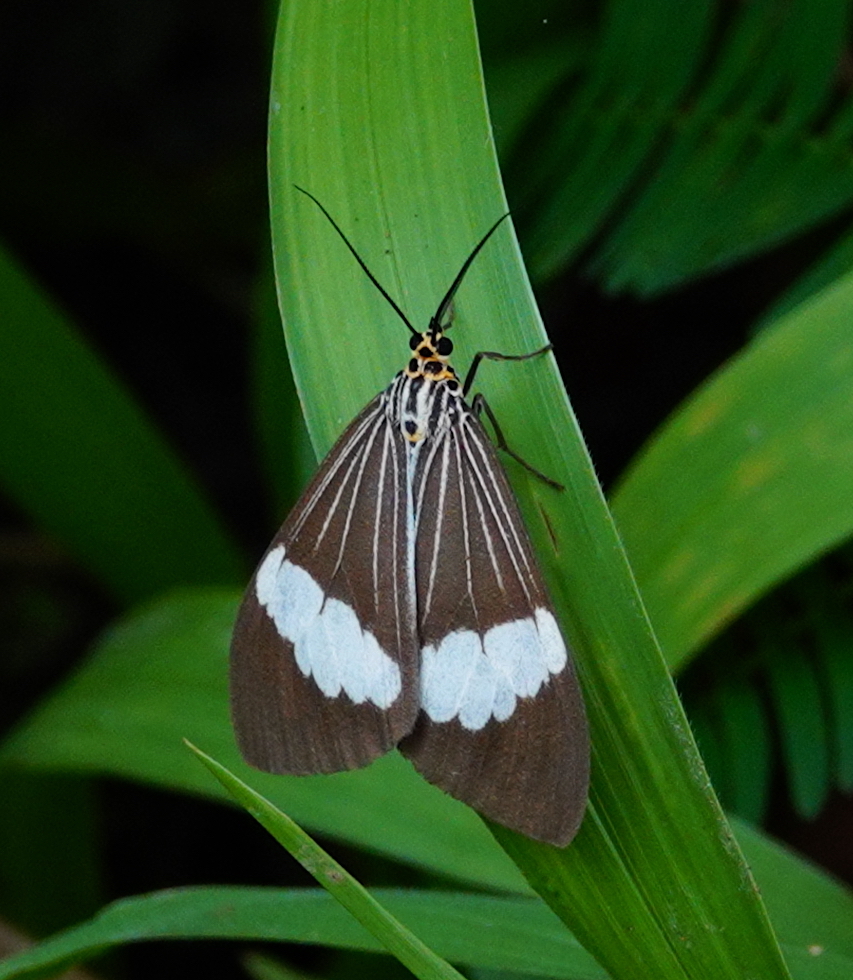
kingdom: Animalia
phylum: Arthropoda
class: Insecta
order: Lepidoptera
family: Erebidae
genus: Nyctemera
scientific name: Nyctemera baulus
